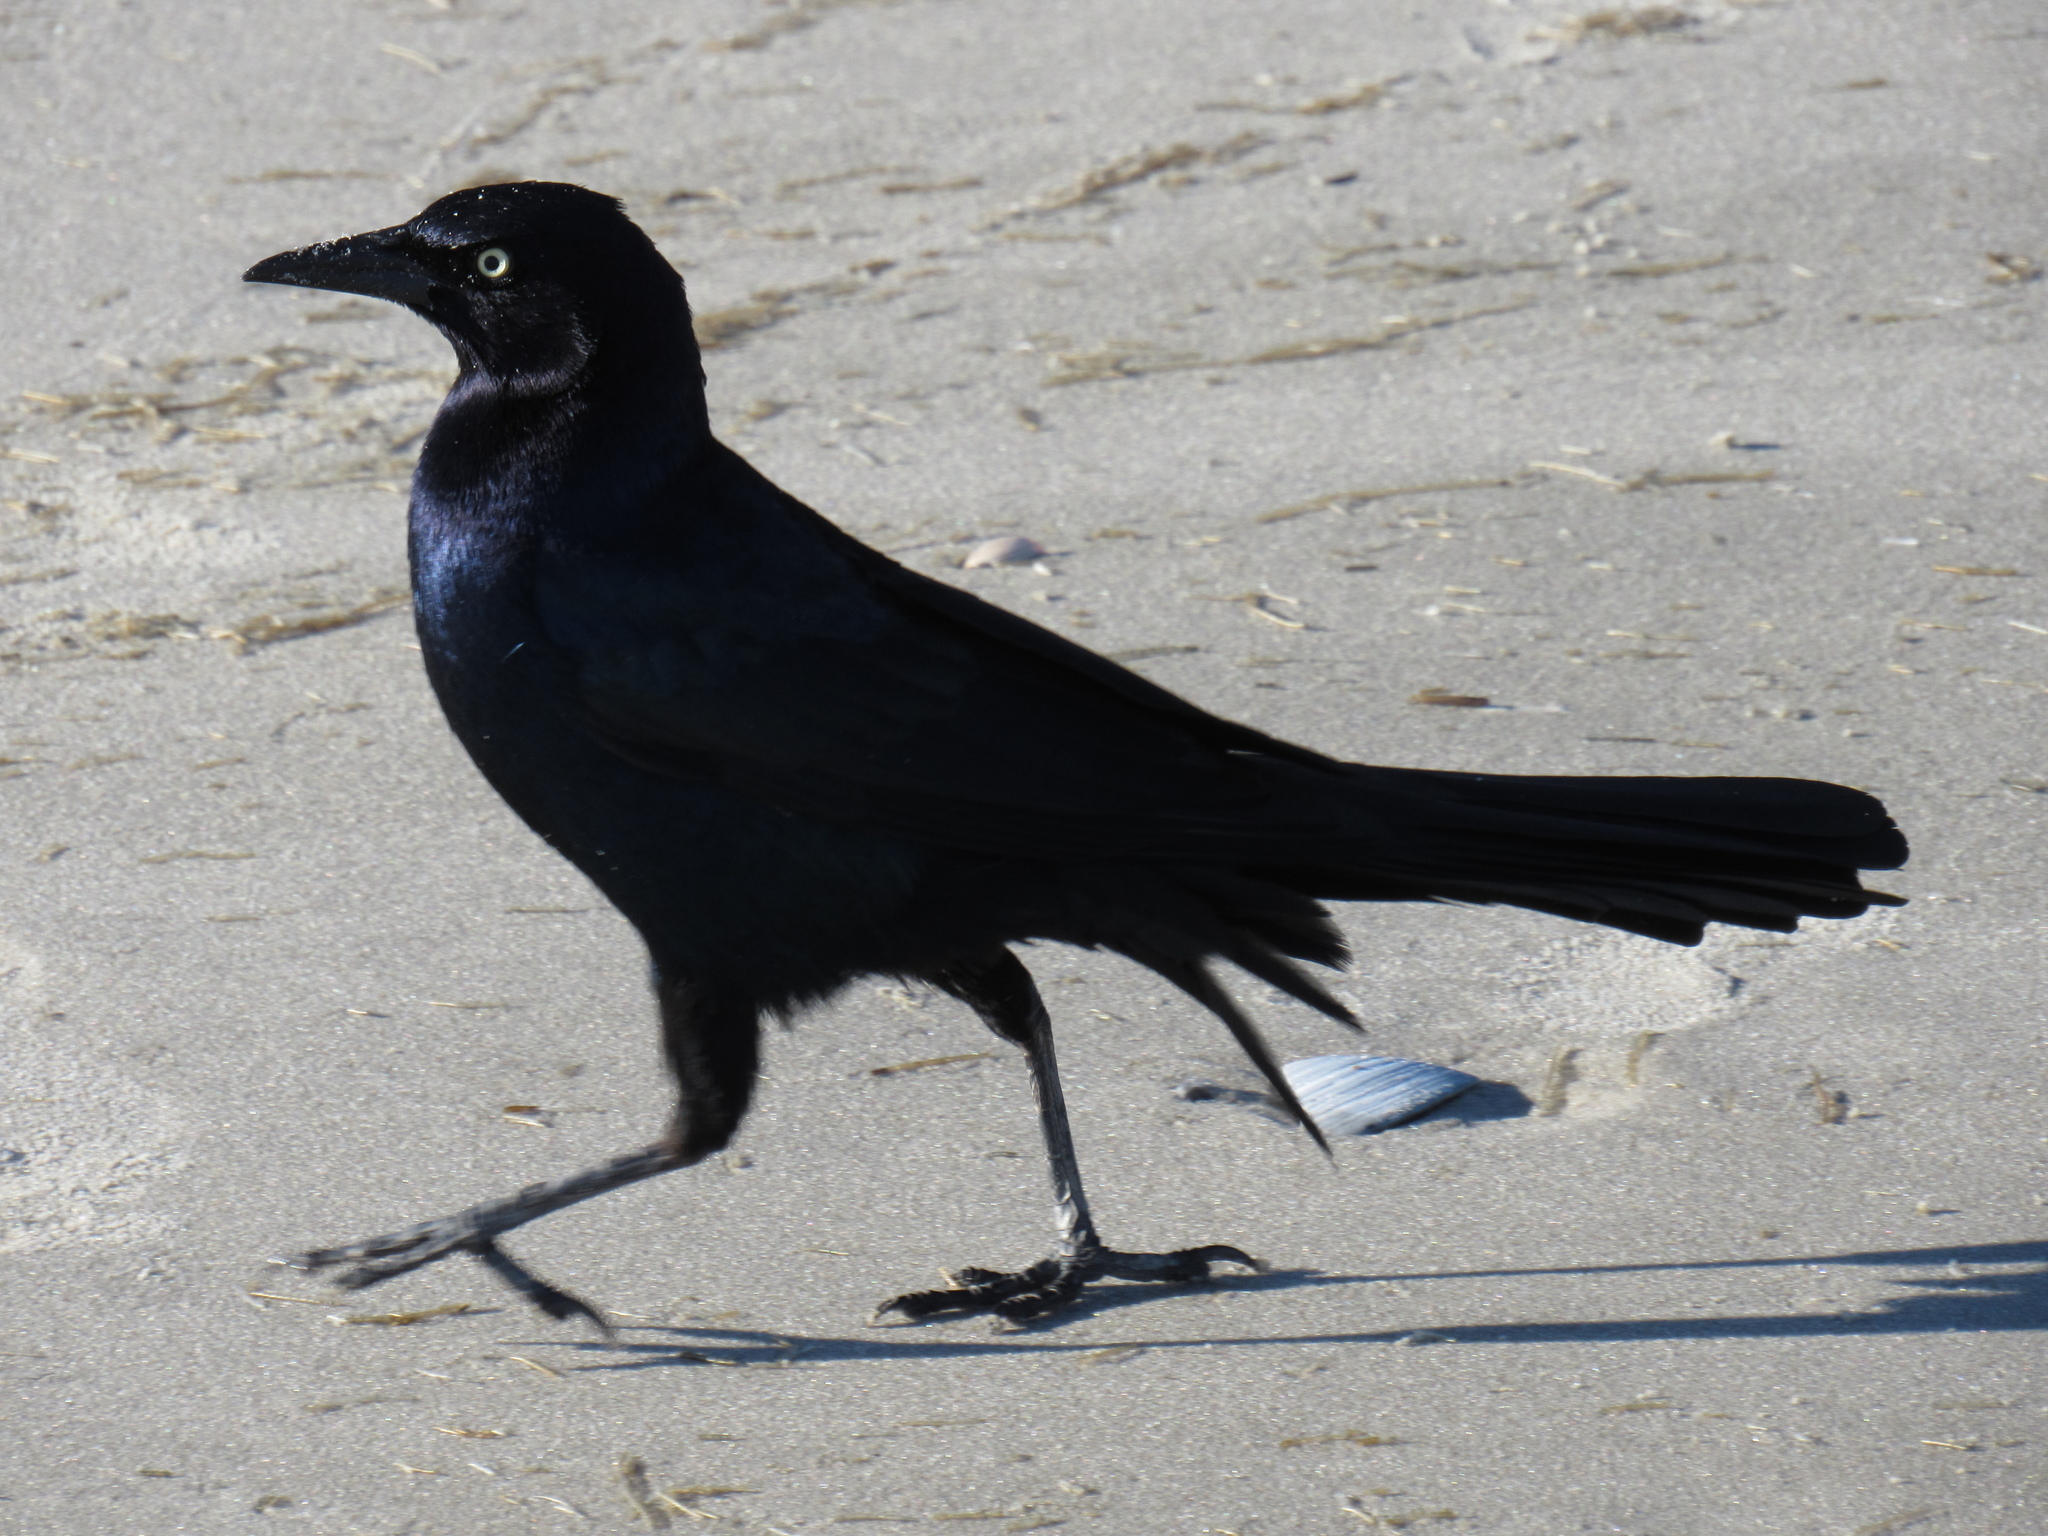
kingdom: Animalia
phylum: Chordata
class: Aves
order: Passeriformes
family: Icteridae
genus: Quiscalus
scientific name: Quiscalus major
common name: Boat-tailed grackle
